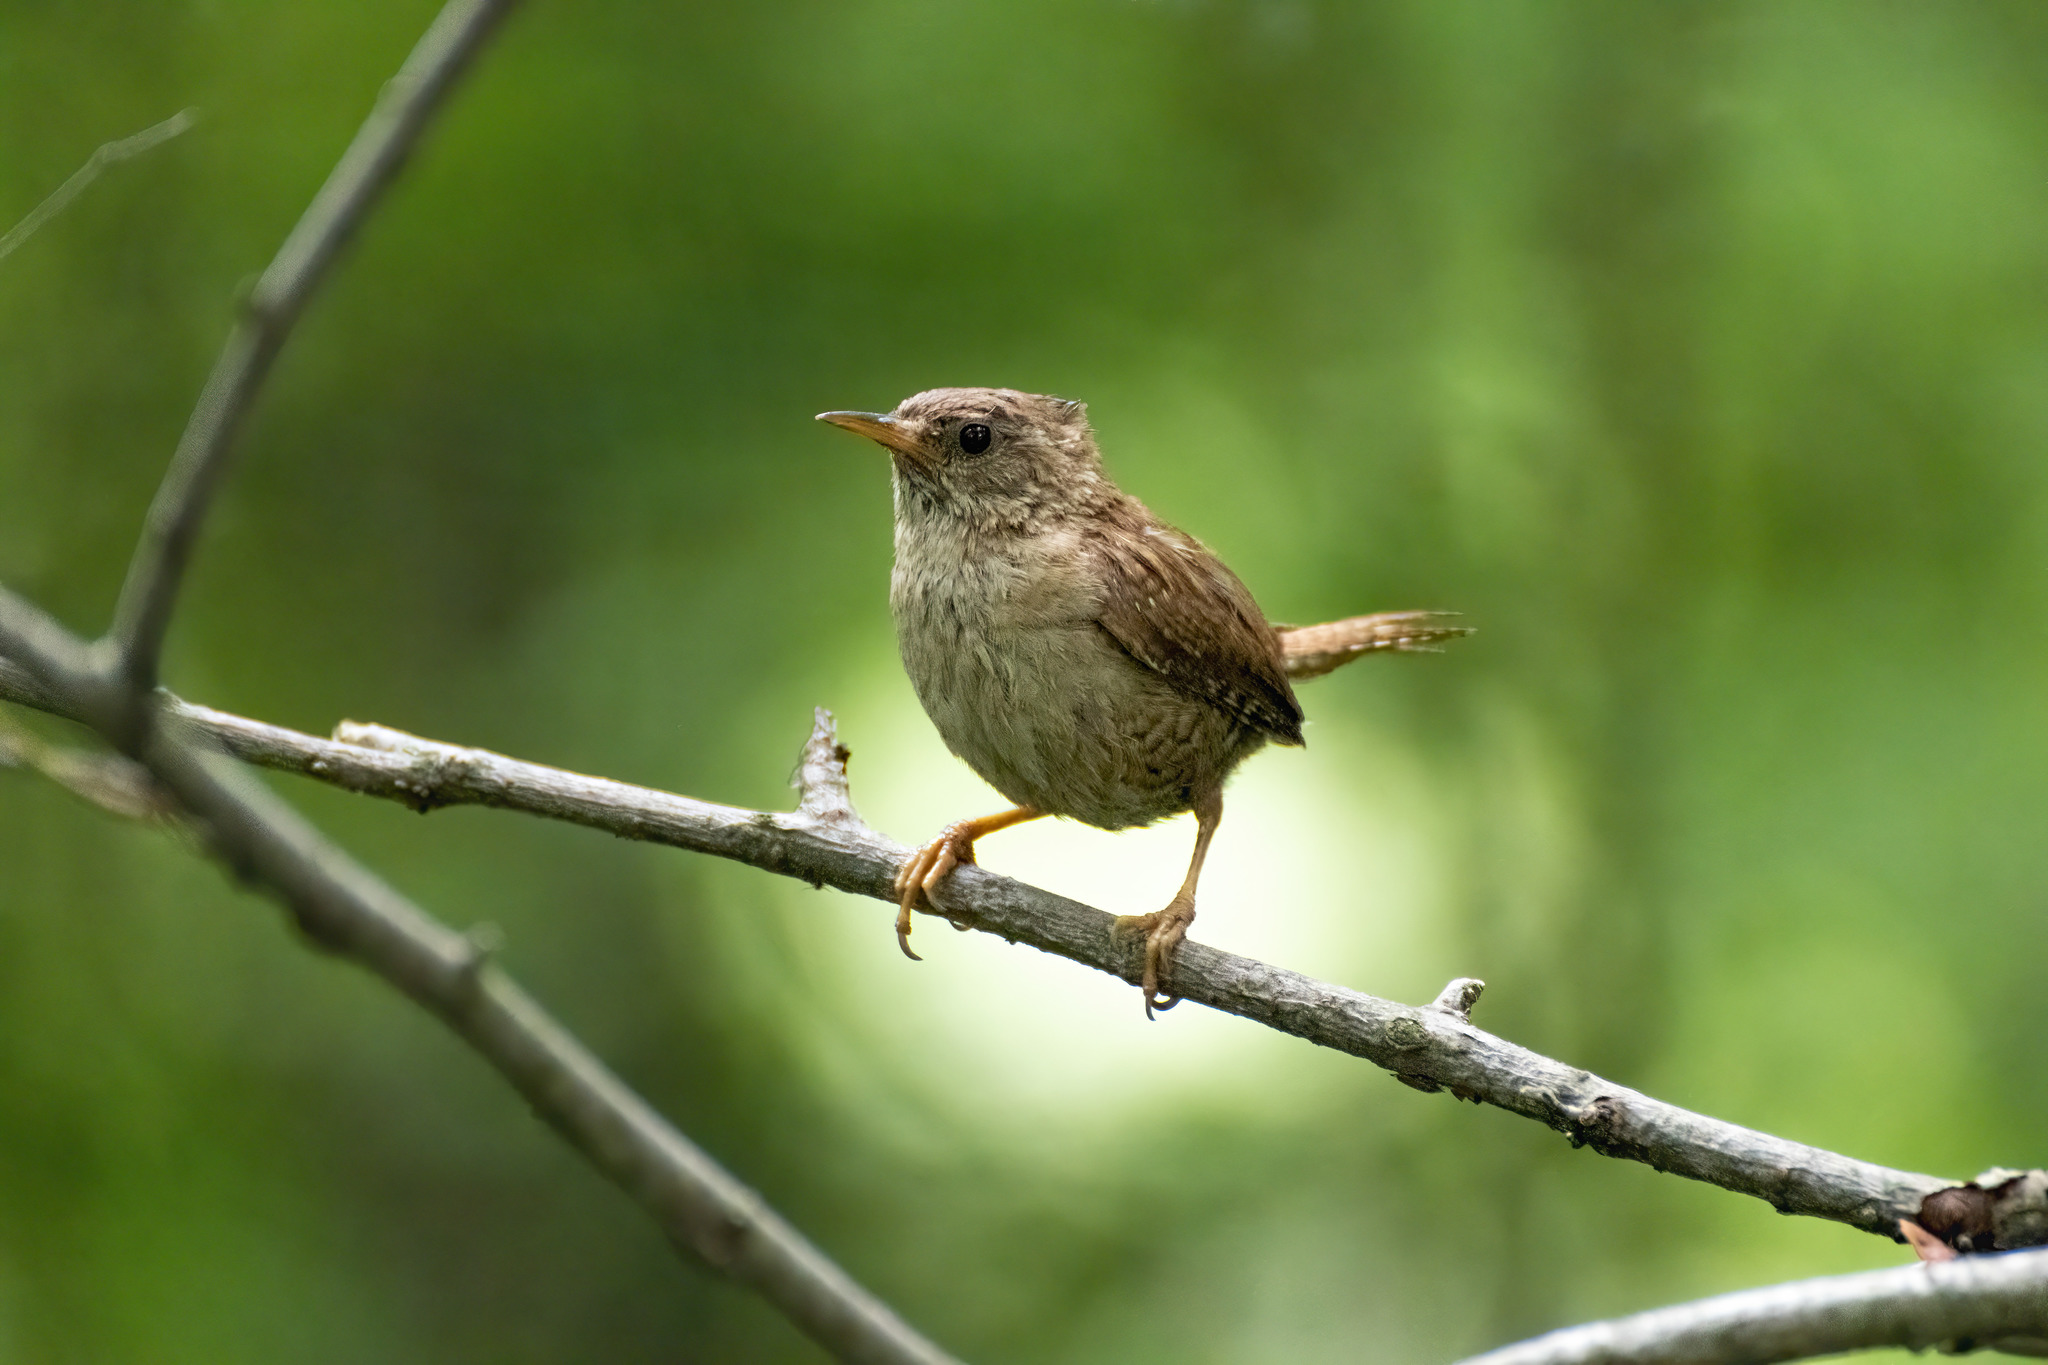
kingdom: Animalia
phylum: Chordata
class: Aves
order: Passeriformes
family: Troglodytidae
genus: Troglodytes
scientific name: Troglodytes troglodytes
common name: Eurasian wren
